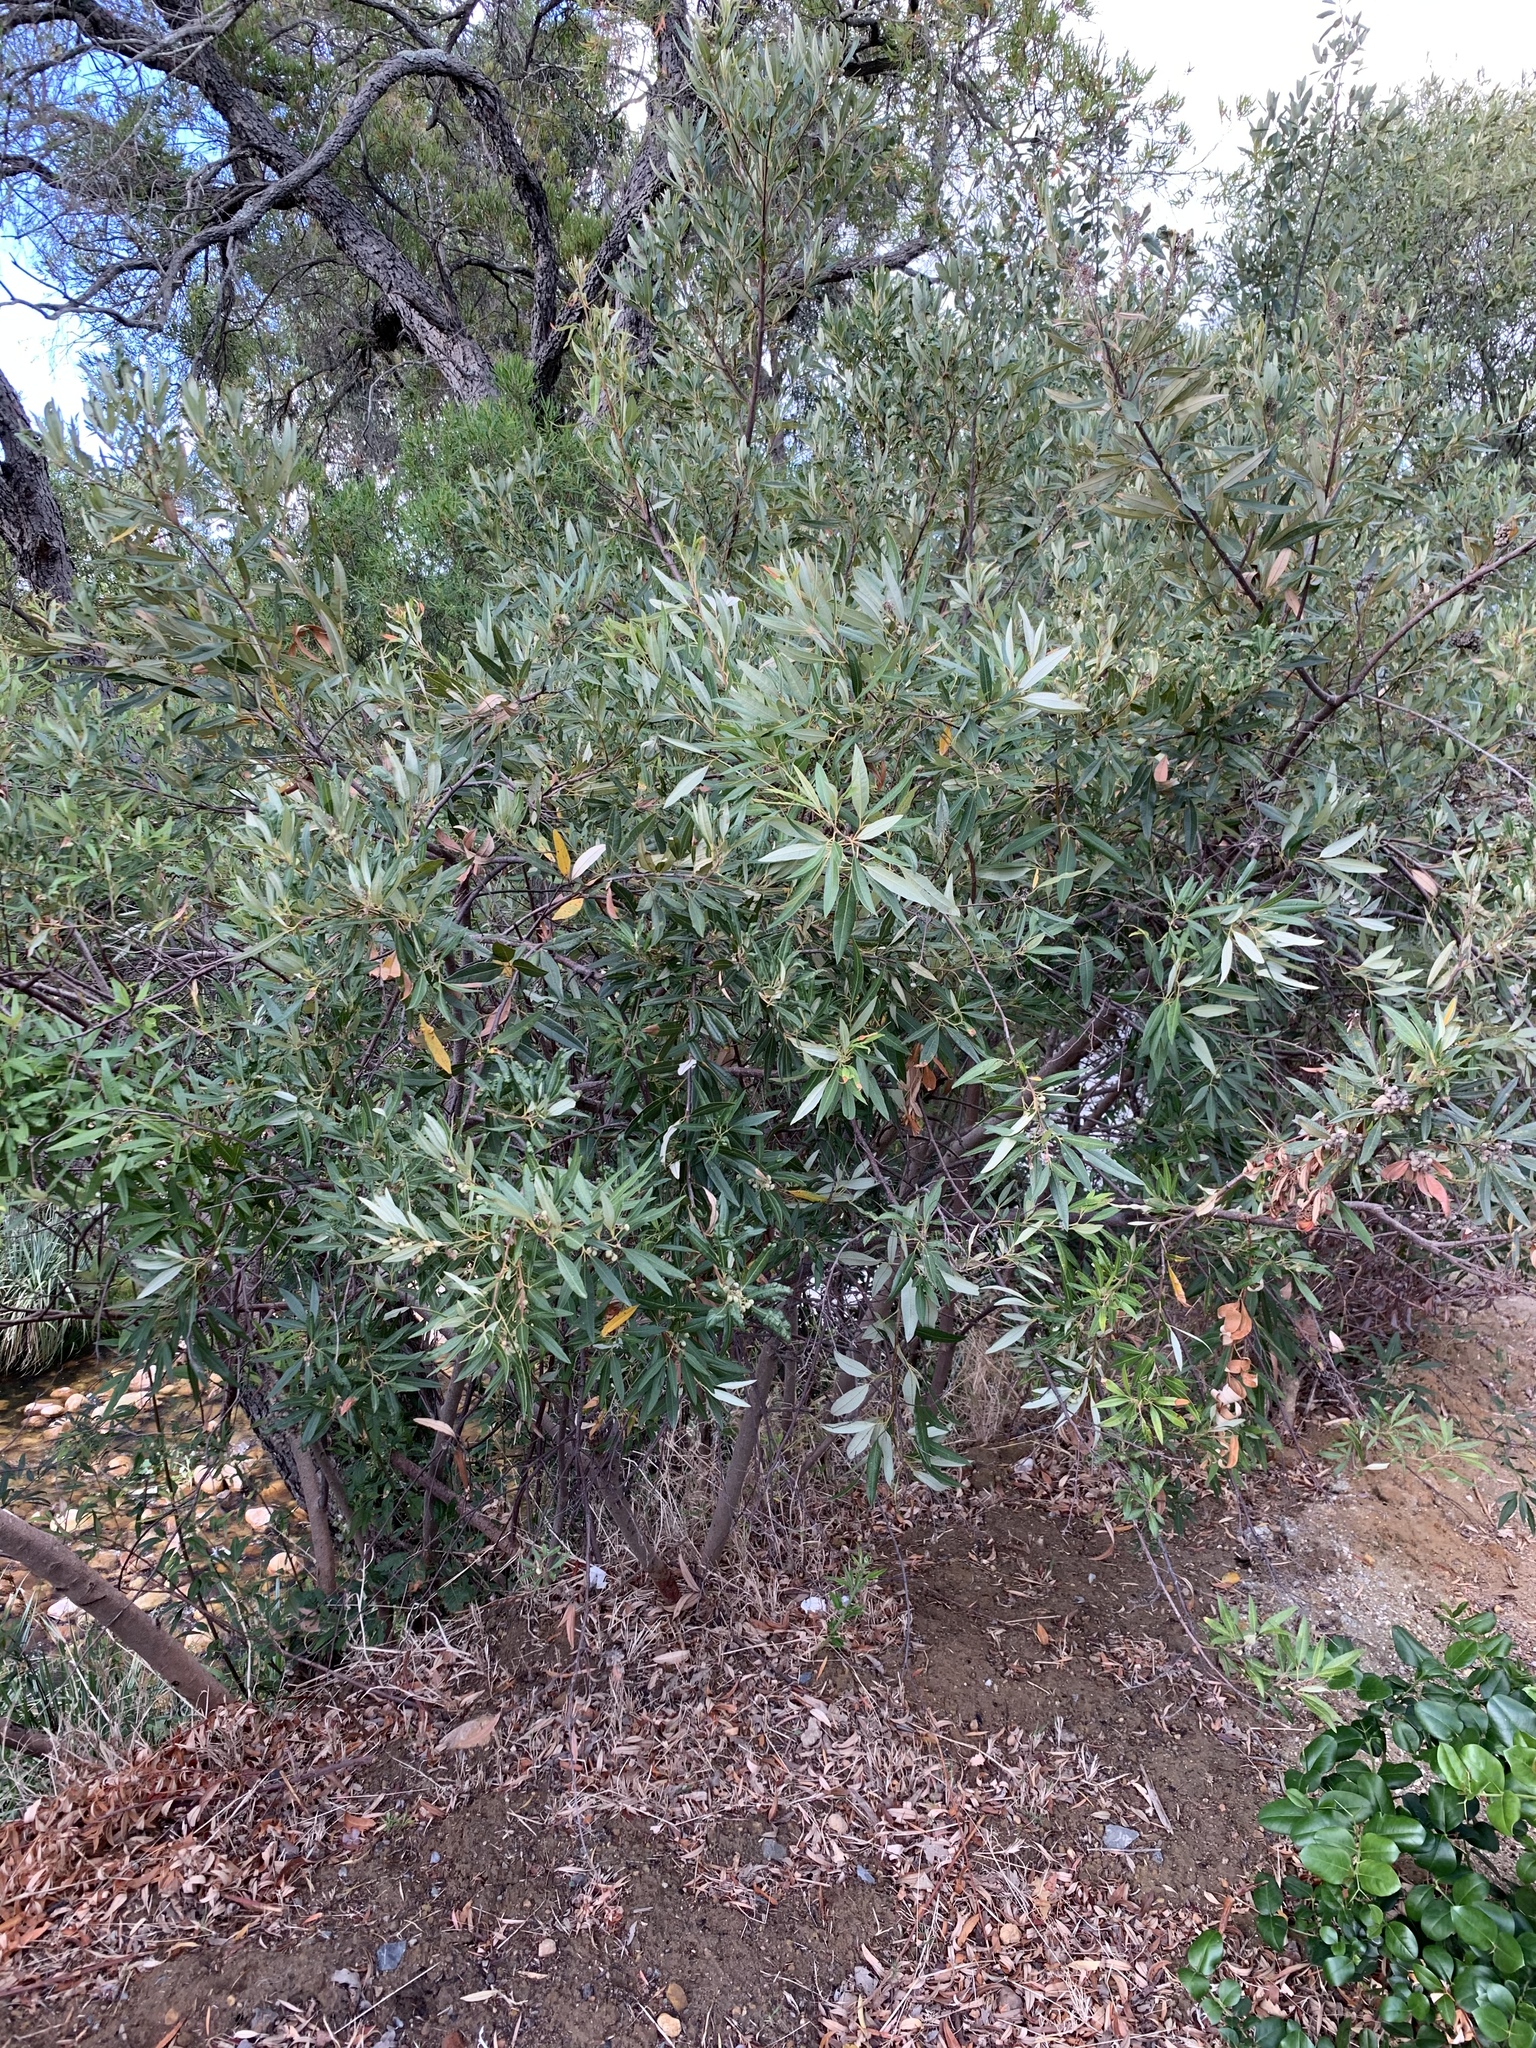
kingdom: Plantae
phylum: Tracheophyta
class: Magnoliopsida
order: Sapindales
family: Anacardiaceae
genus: Searsia
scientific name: Searsia angustifolia
